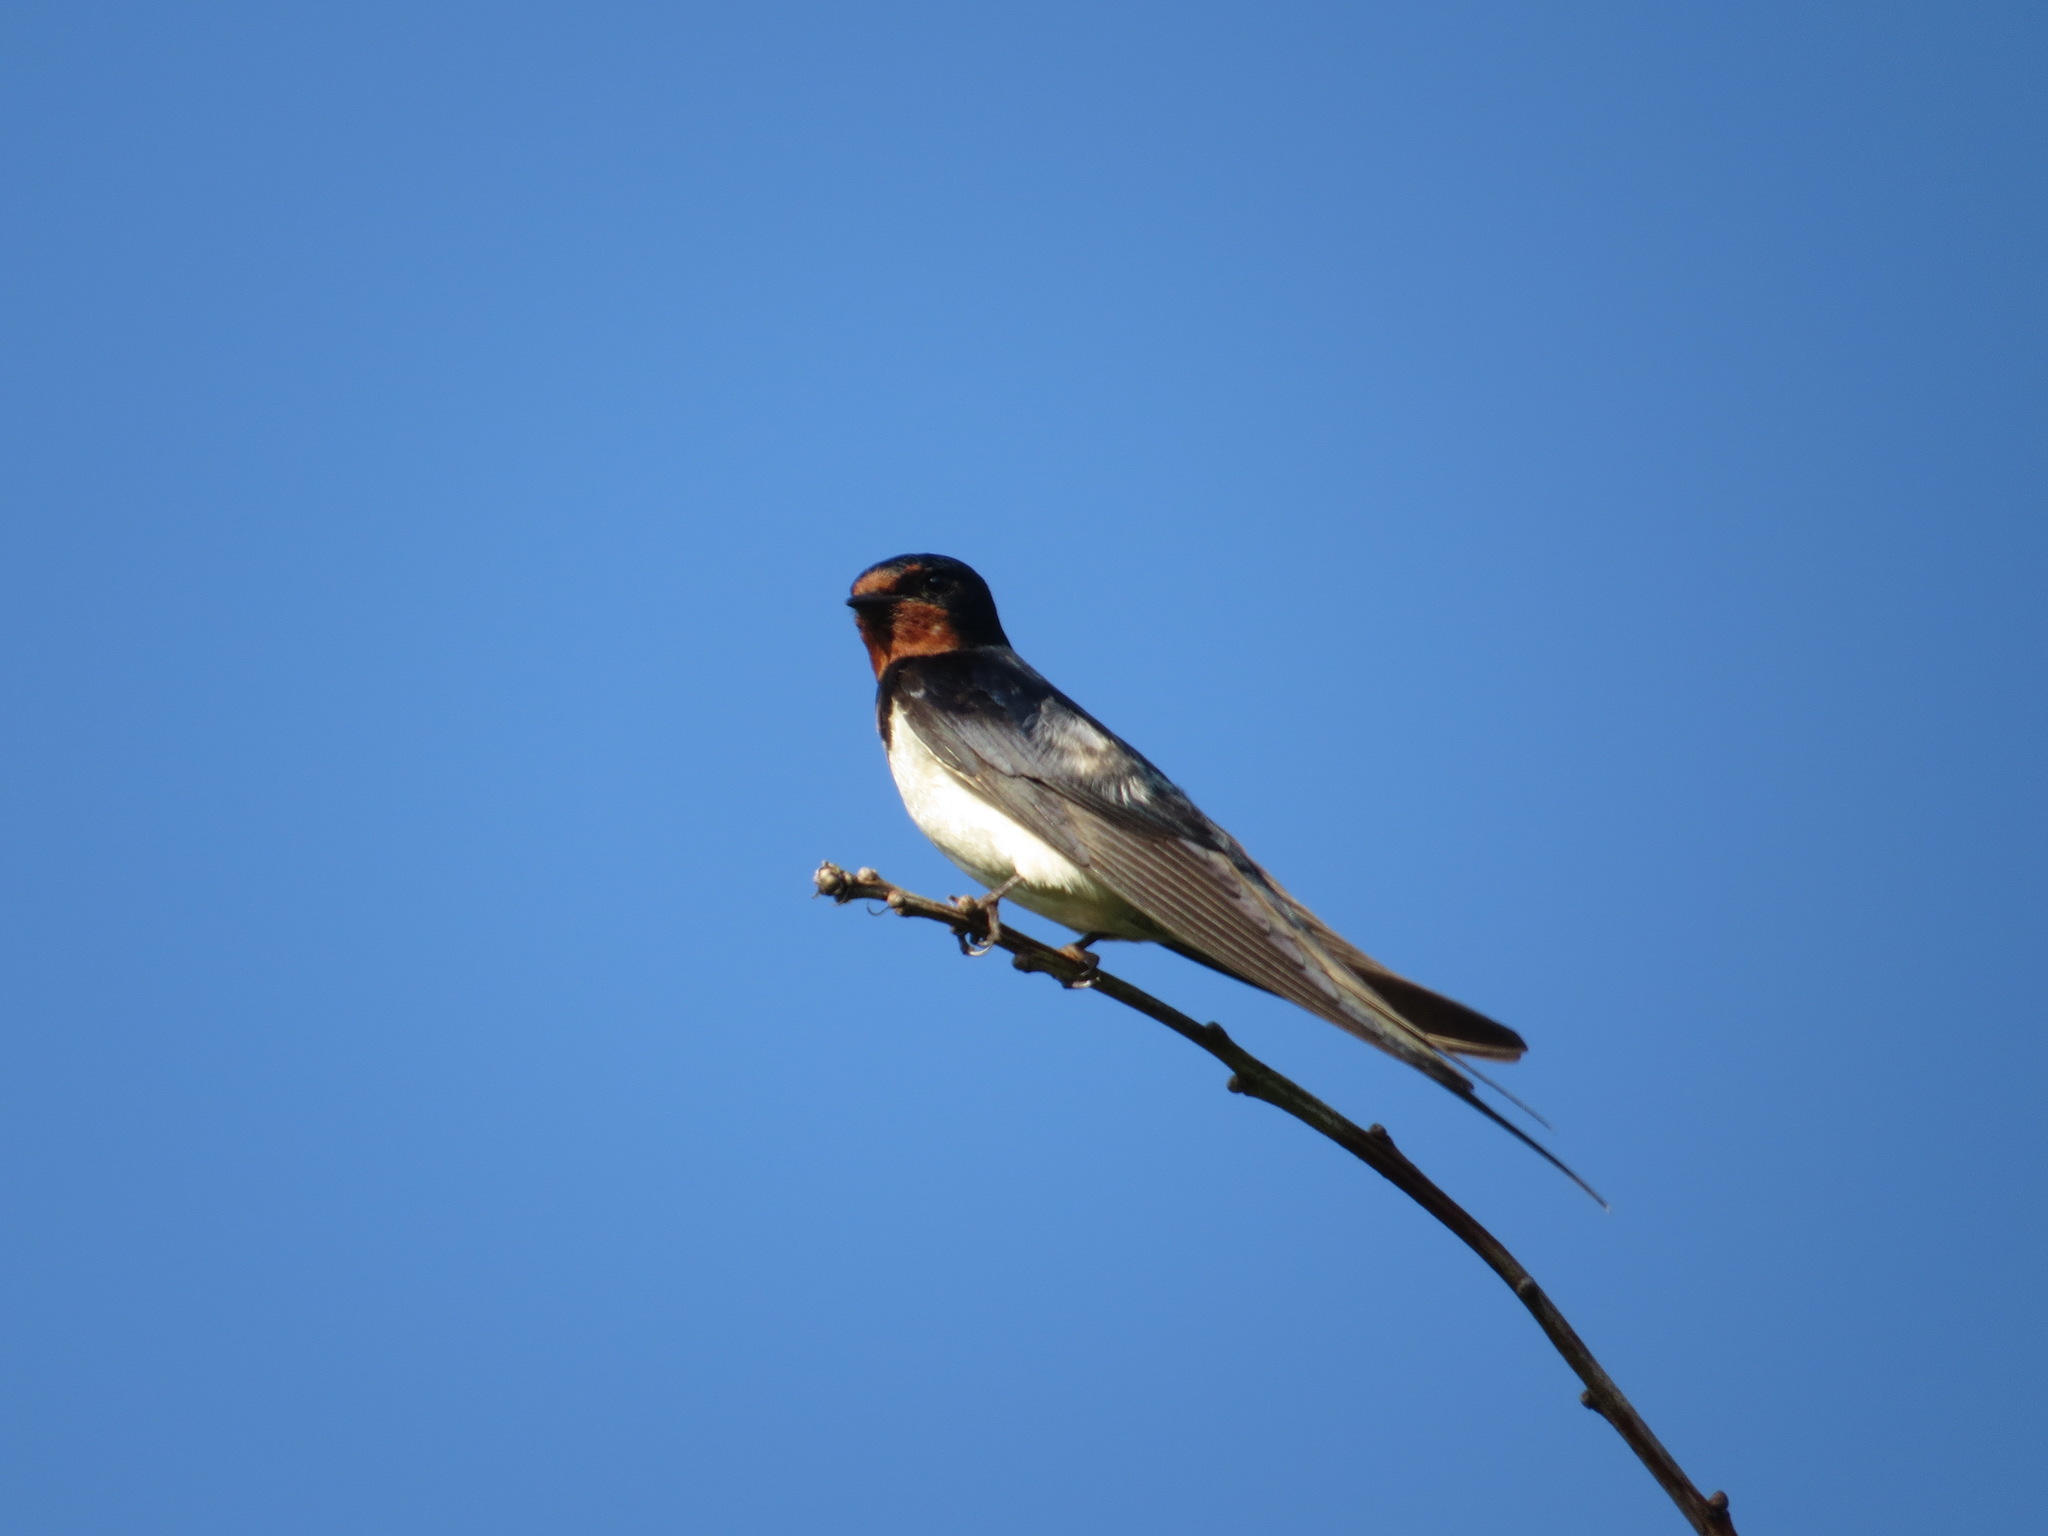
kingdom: Animalia
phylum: Chordata
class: Aves
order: Passeriformes
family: Hirundinidae
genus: Hirundo
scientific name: Hirundo rustica
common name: Barn swallow
